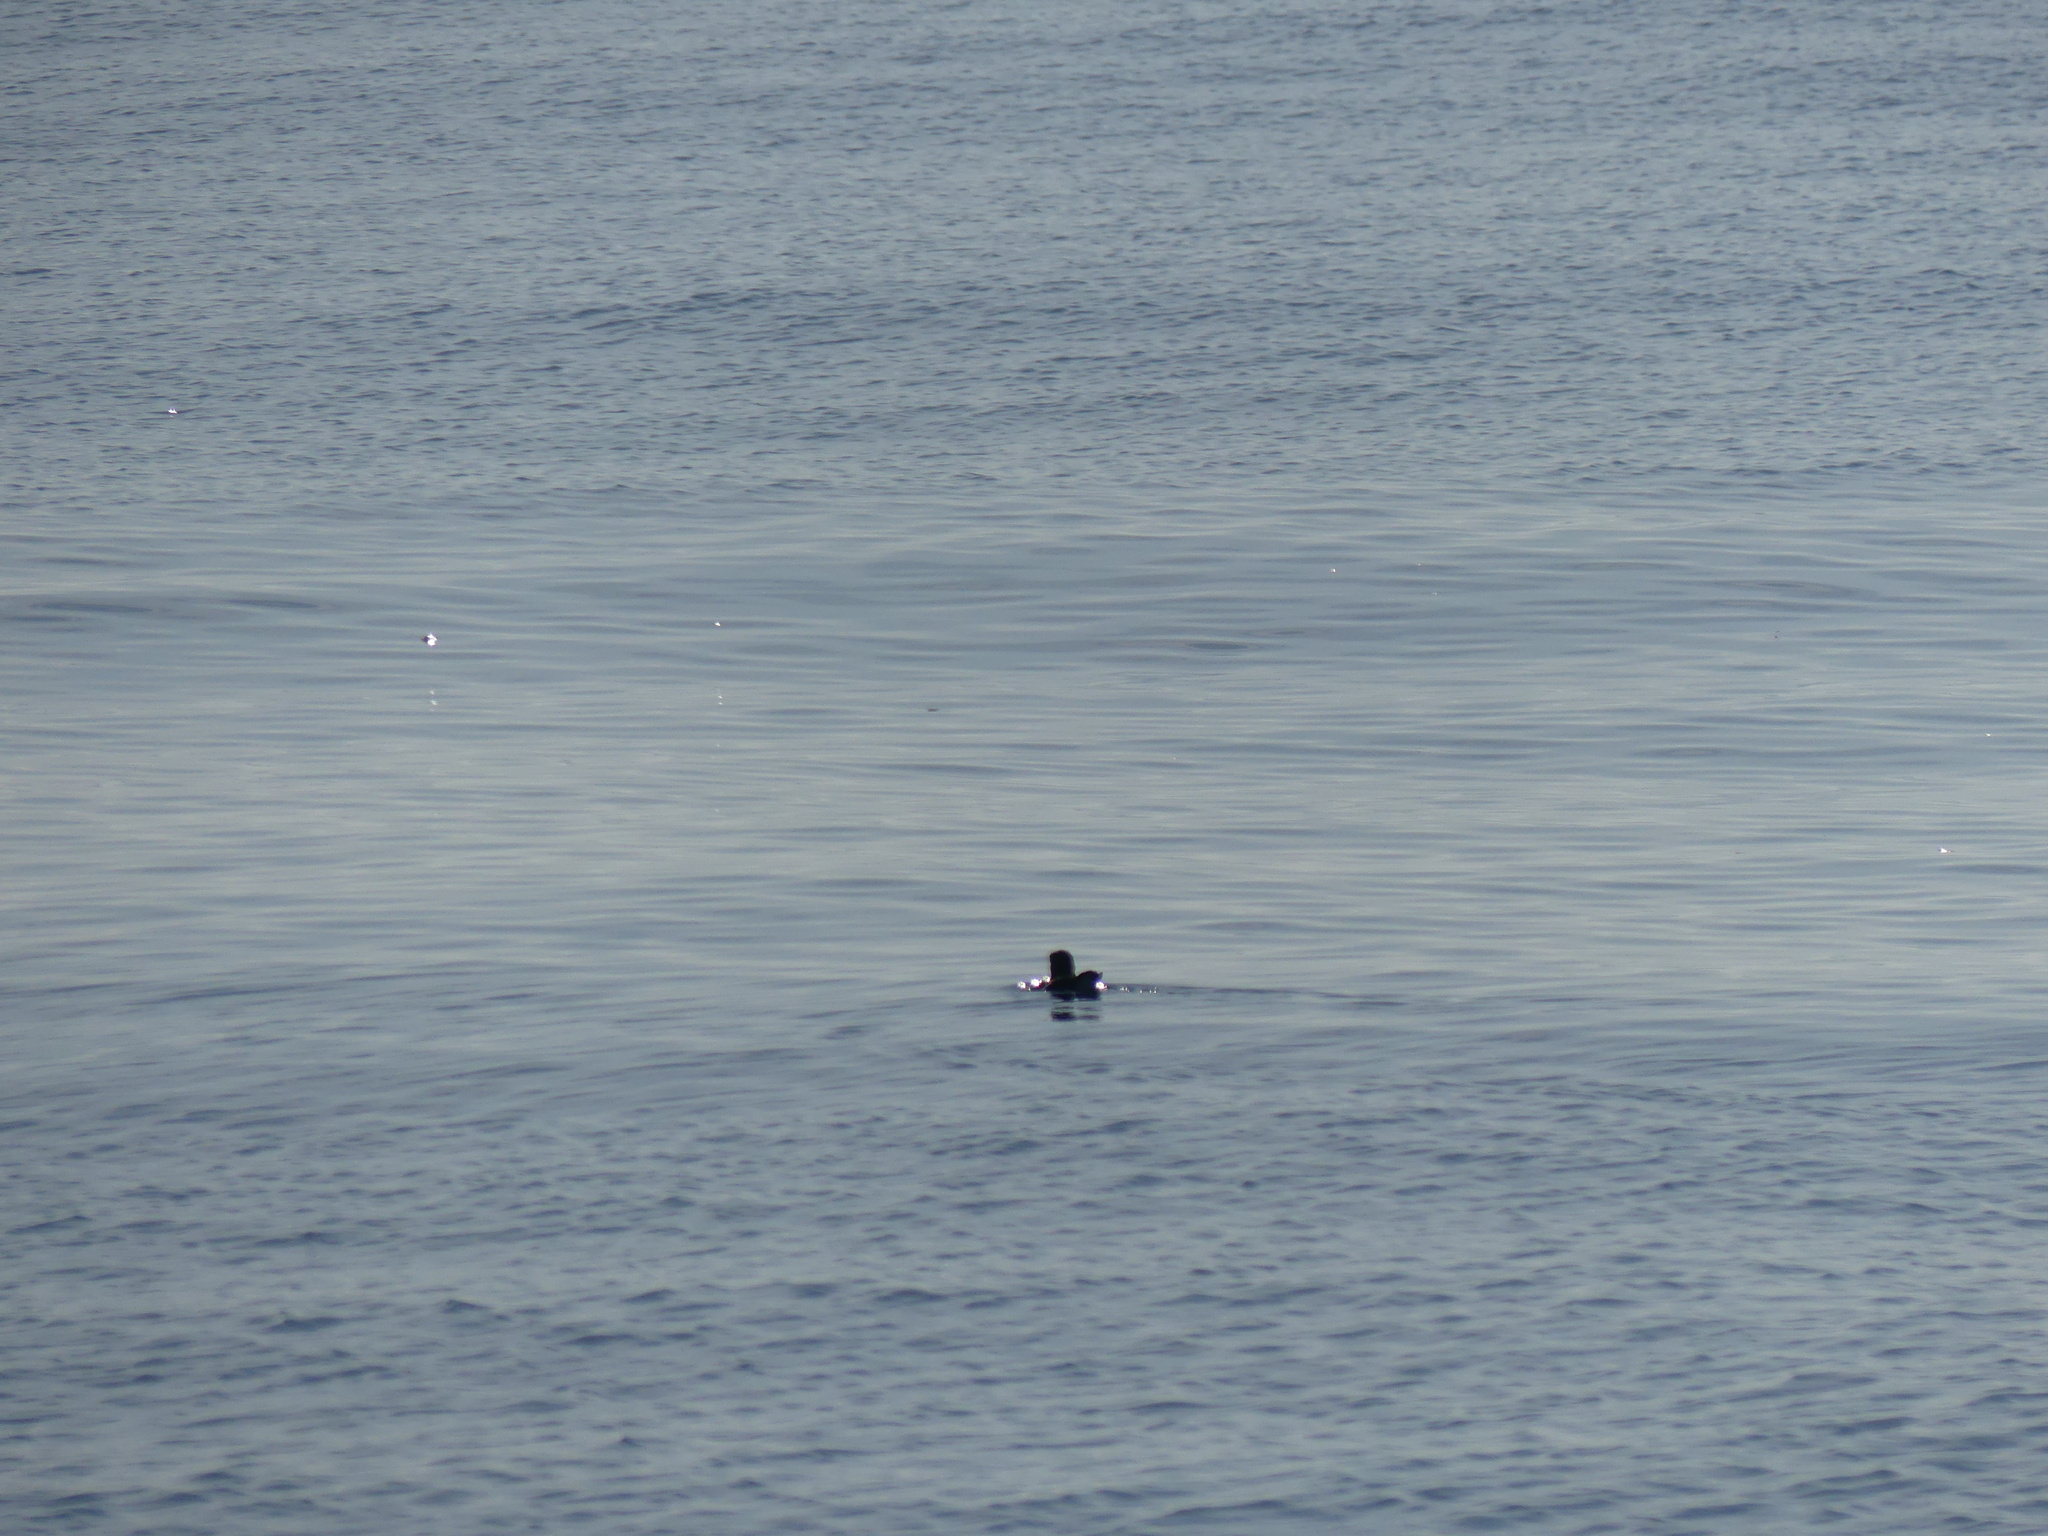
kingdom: Animalia
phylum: Chordata
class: Aves
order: Charadriiformes
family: Alcidae
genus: Fratercula
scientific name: Fratercula arctica
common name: Atlantic puffin
